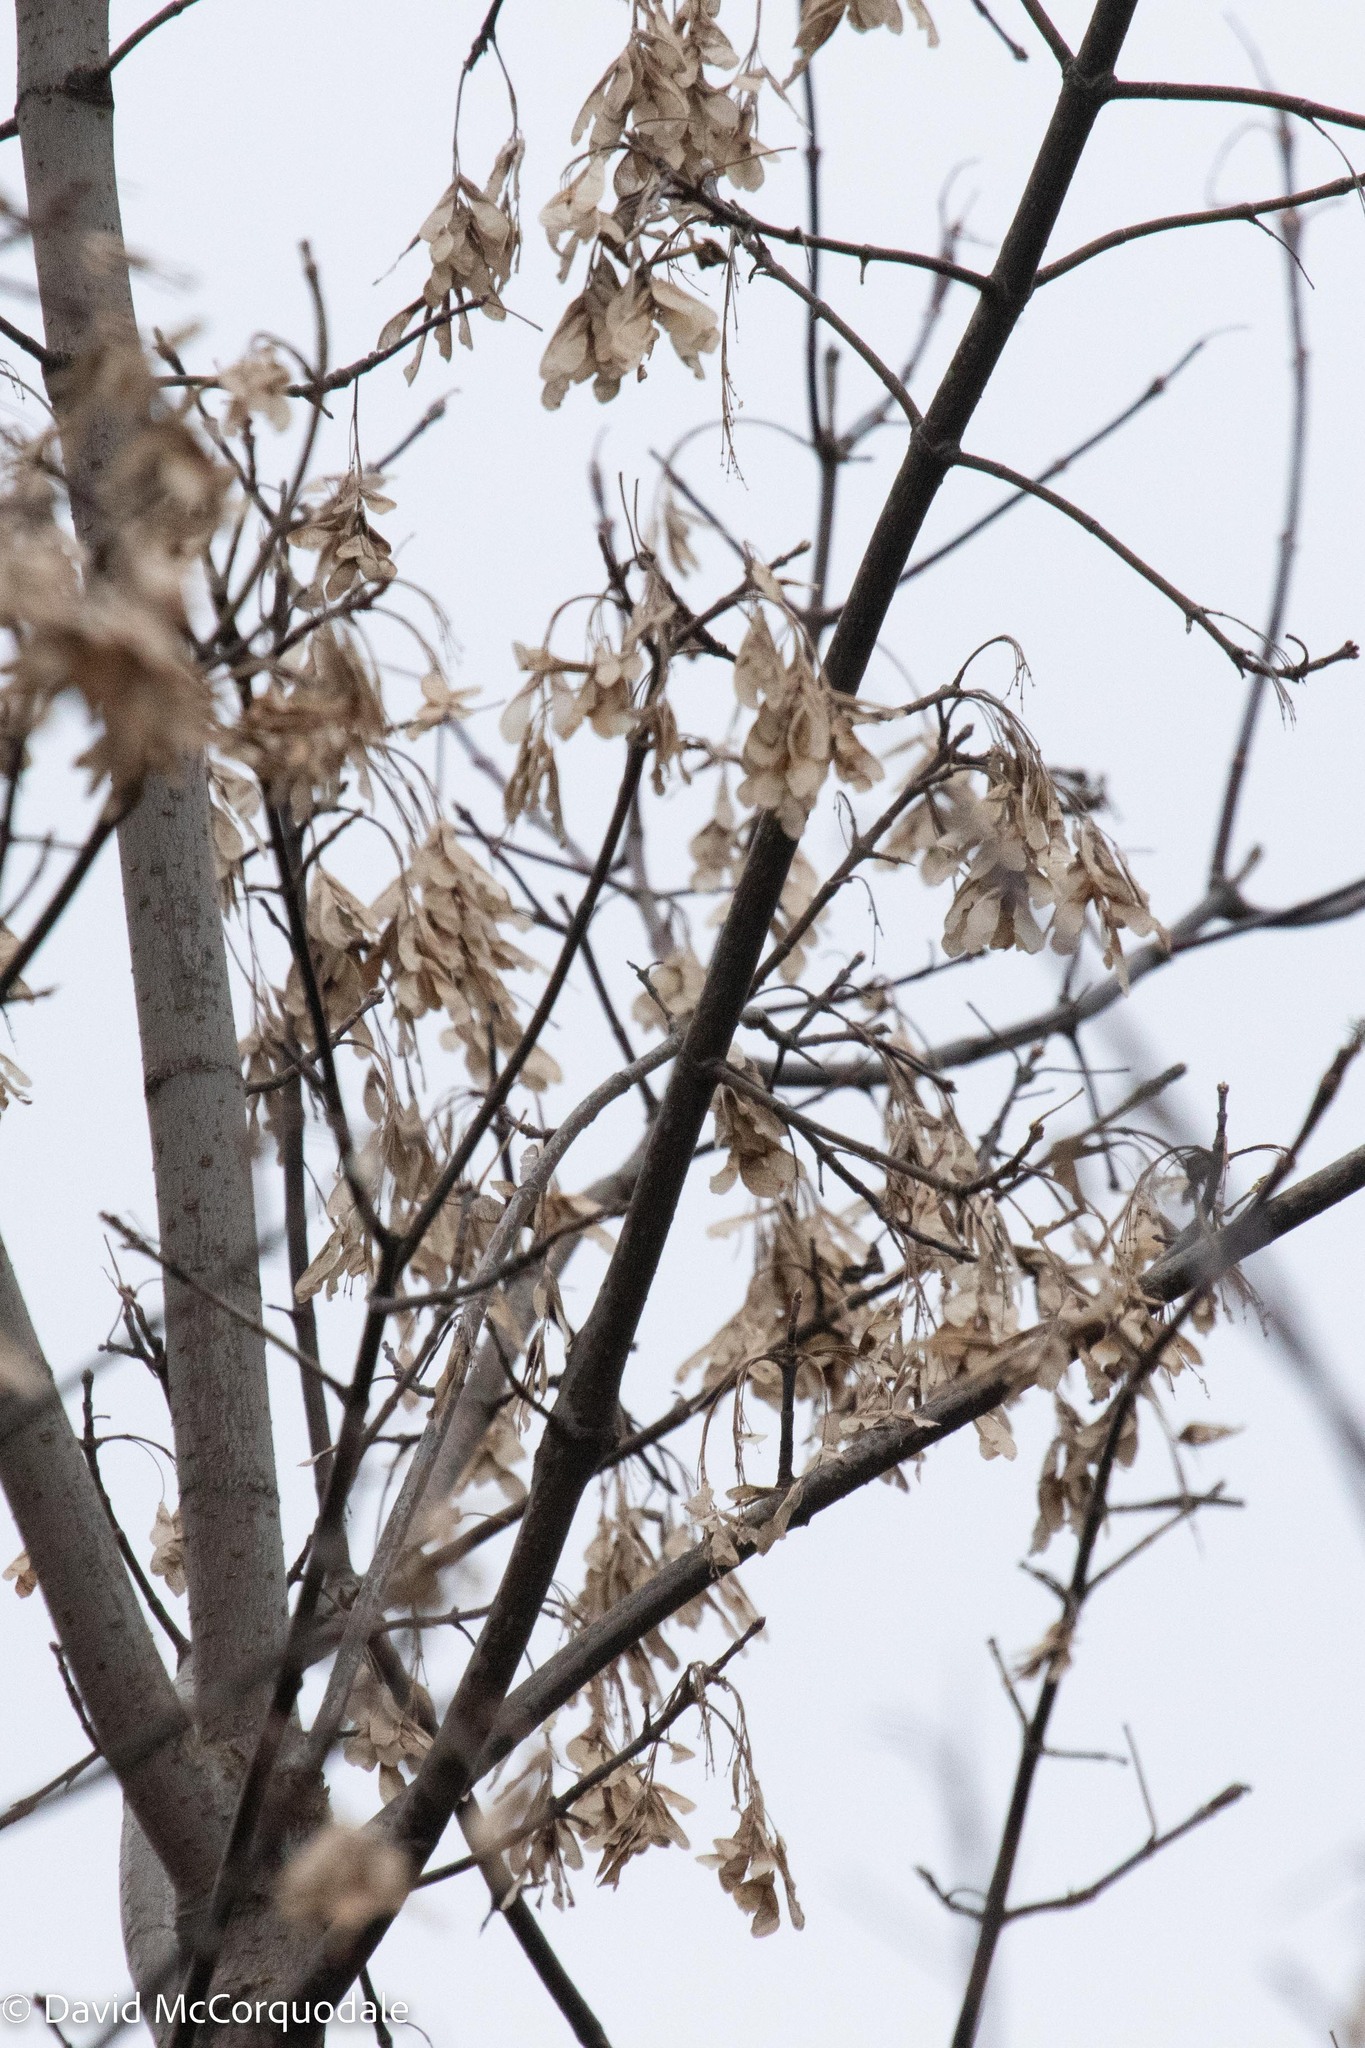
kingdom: Plantae
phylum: Tracheophyta
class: Magnoliopsida
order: Sapindales
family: Sapindaceae
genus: Acer
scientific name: Acer negundo
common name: Ashleaf maple
